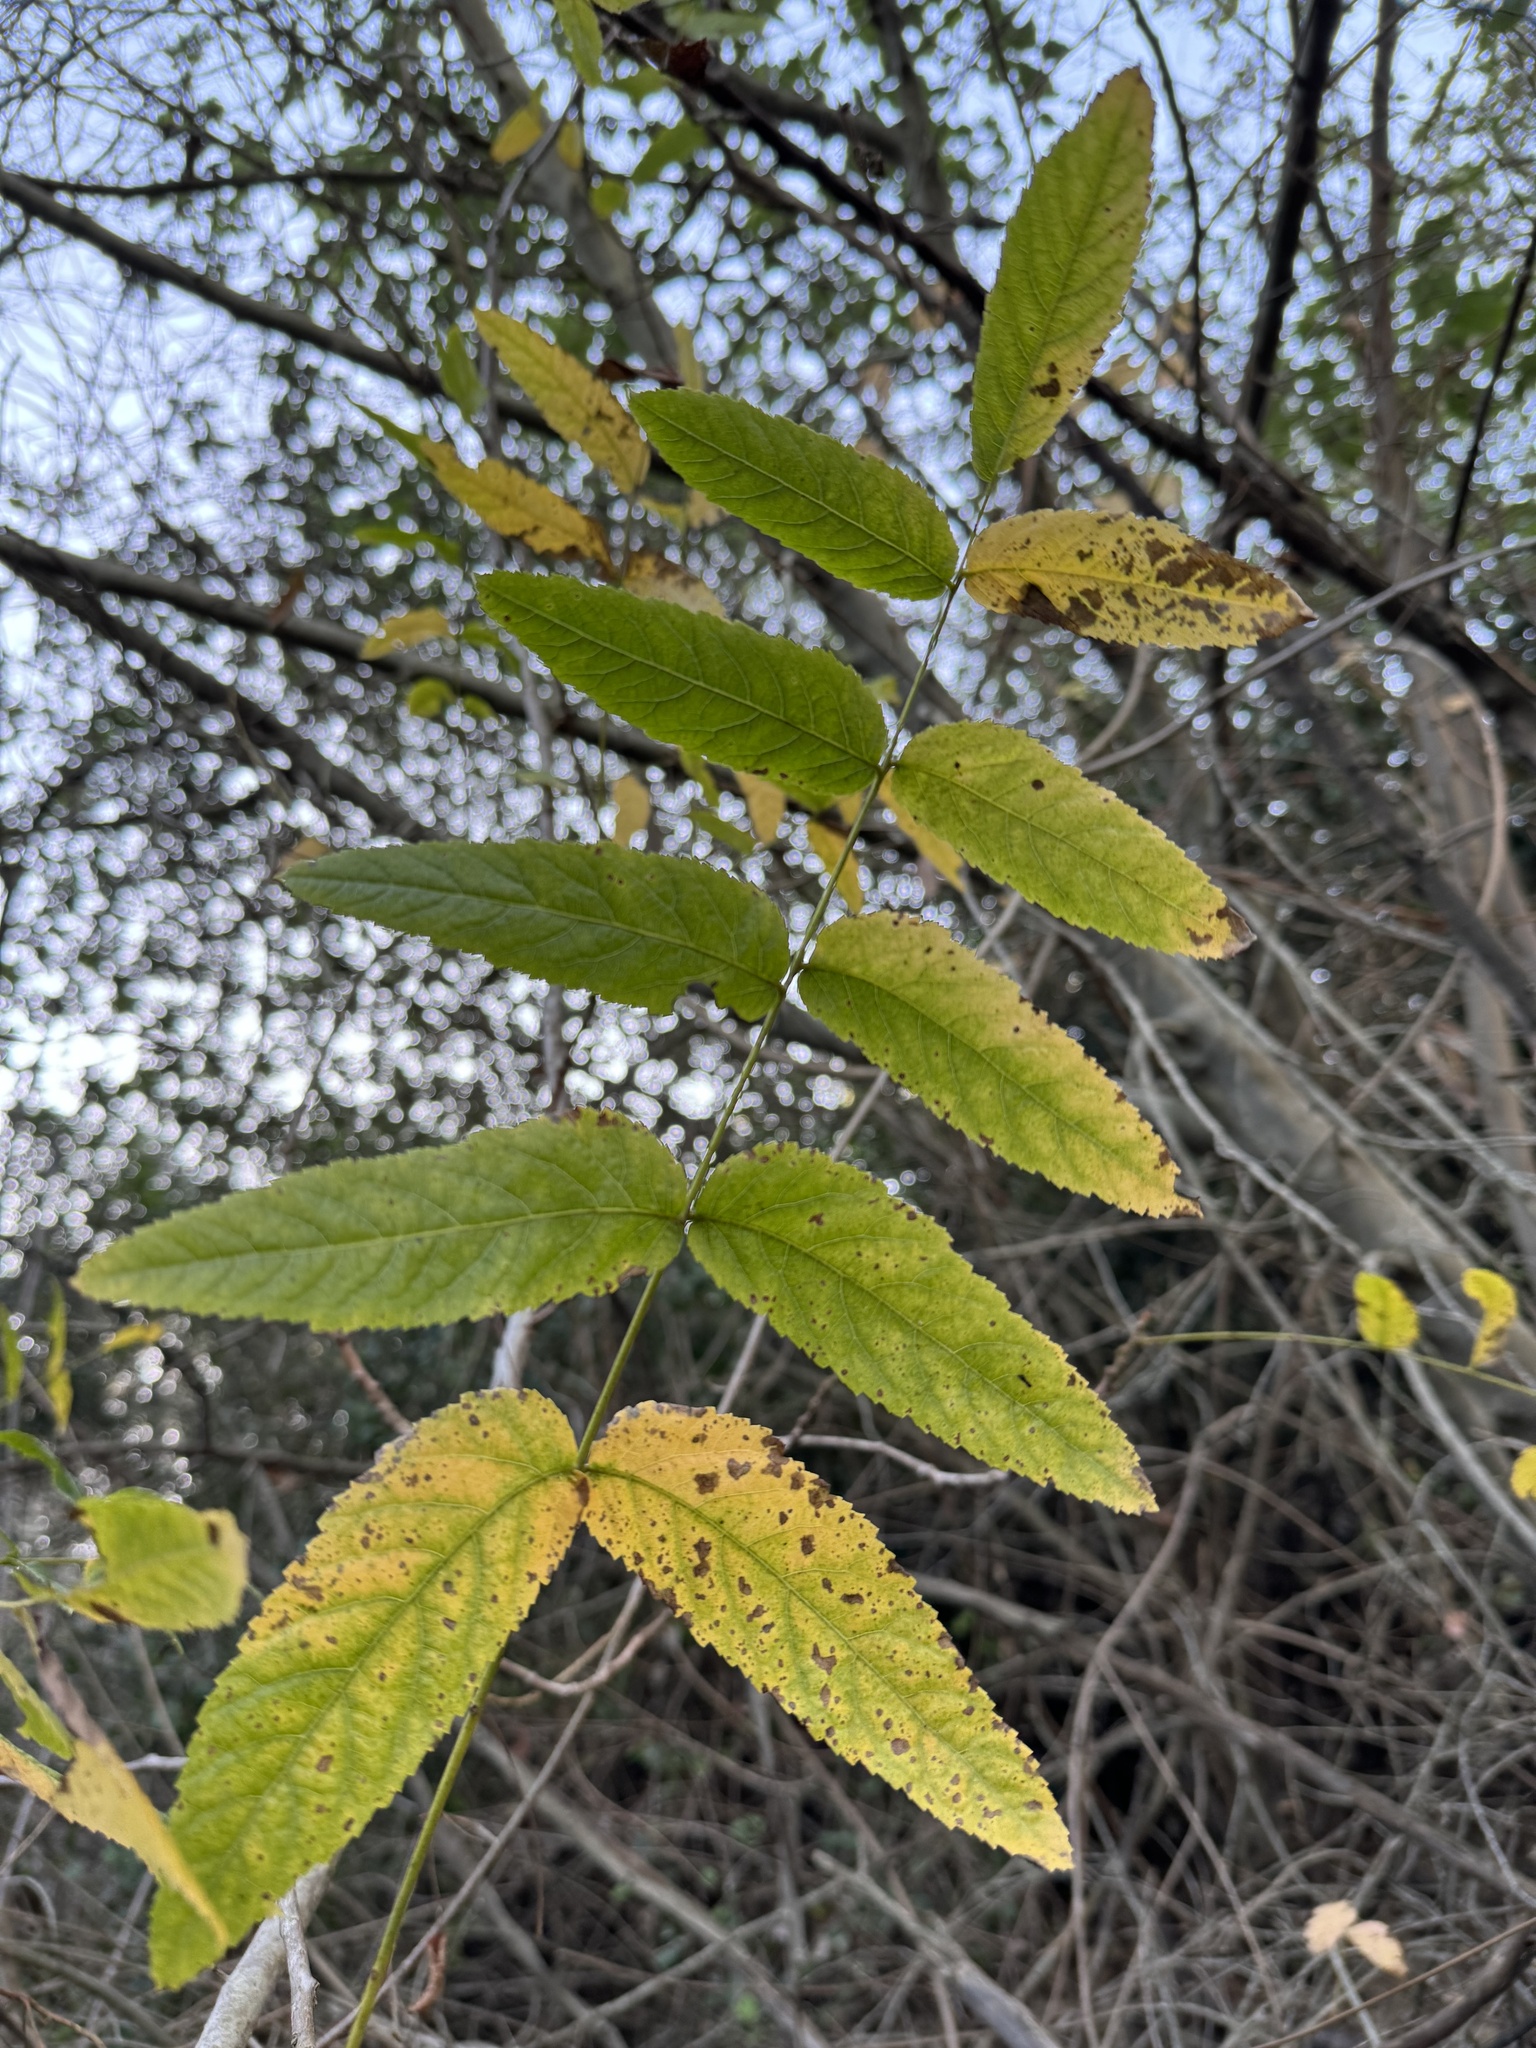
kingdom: Plantae
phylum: Tracheophyta
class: Magnoliopsida
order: Fagales
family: Juglandaceae
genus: Juglans
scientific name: Juglans californica
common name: Southern california black walnut
